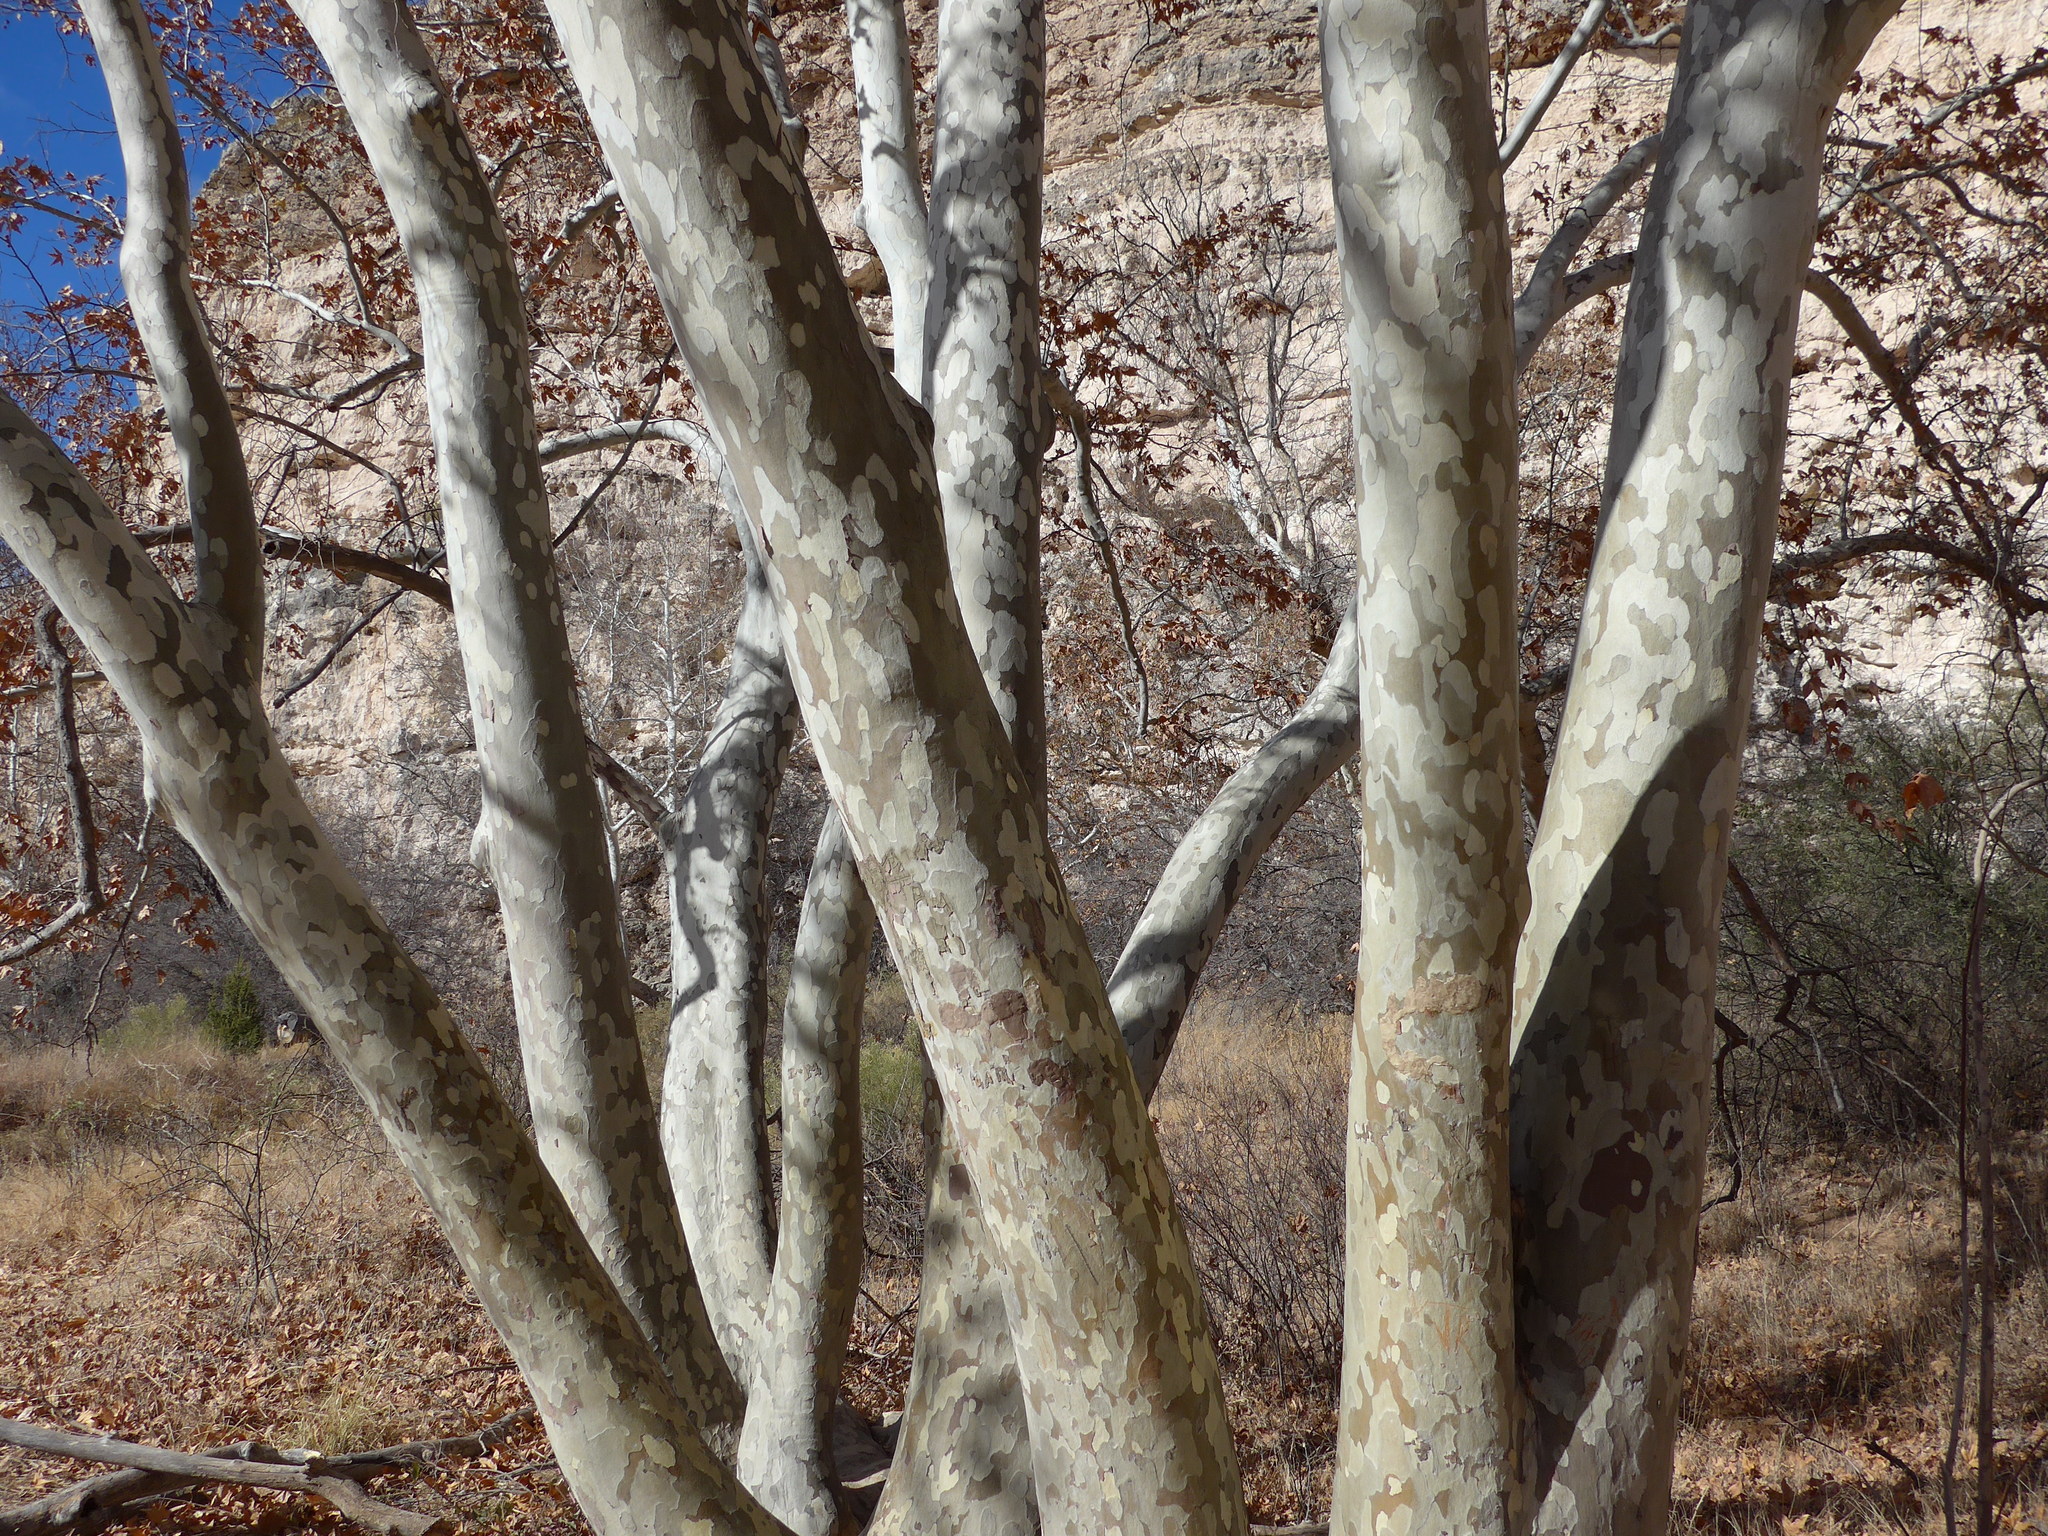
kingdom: Plantae
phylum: Tracheophyta
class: Magnoliopsida
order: Proteales
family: Platanaceae
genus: Platanus
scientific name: Platanus wrightii
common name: Arizona sycamore
